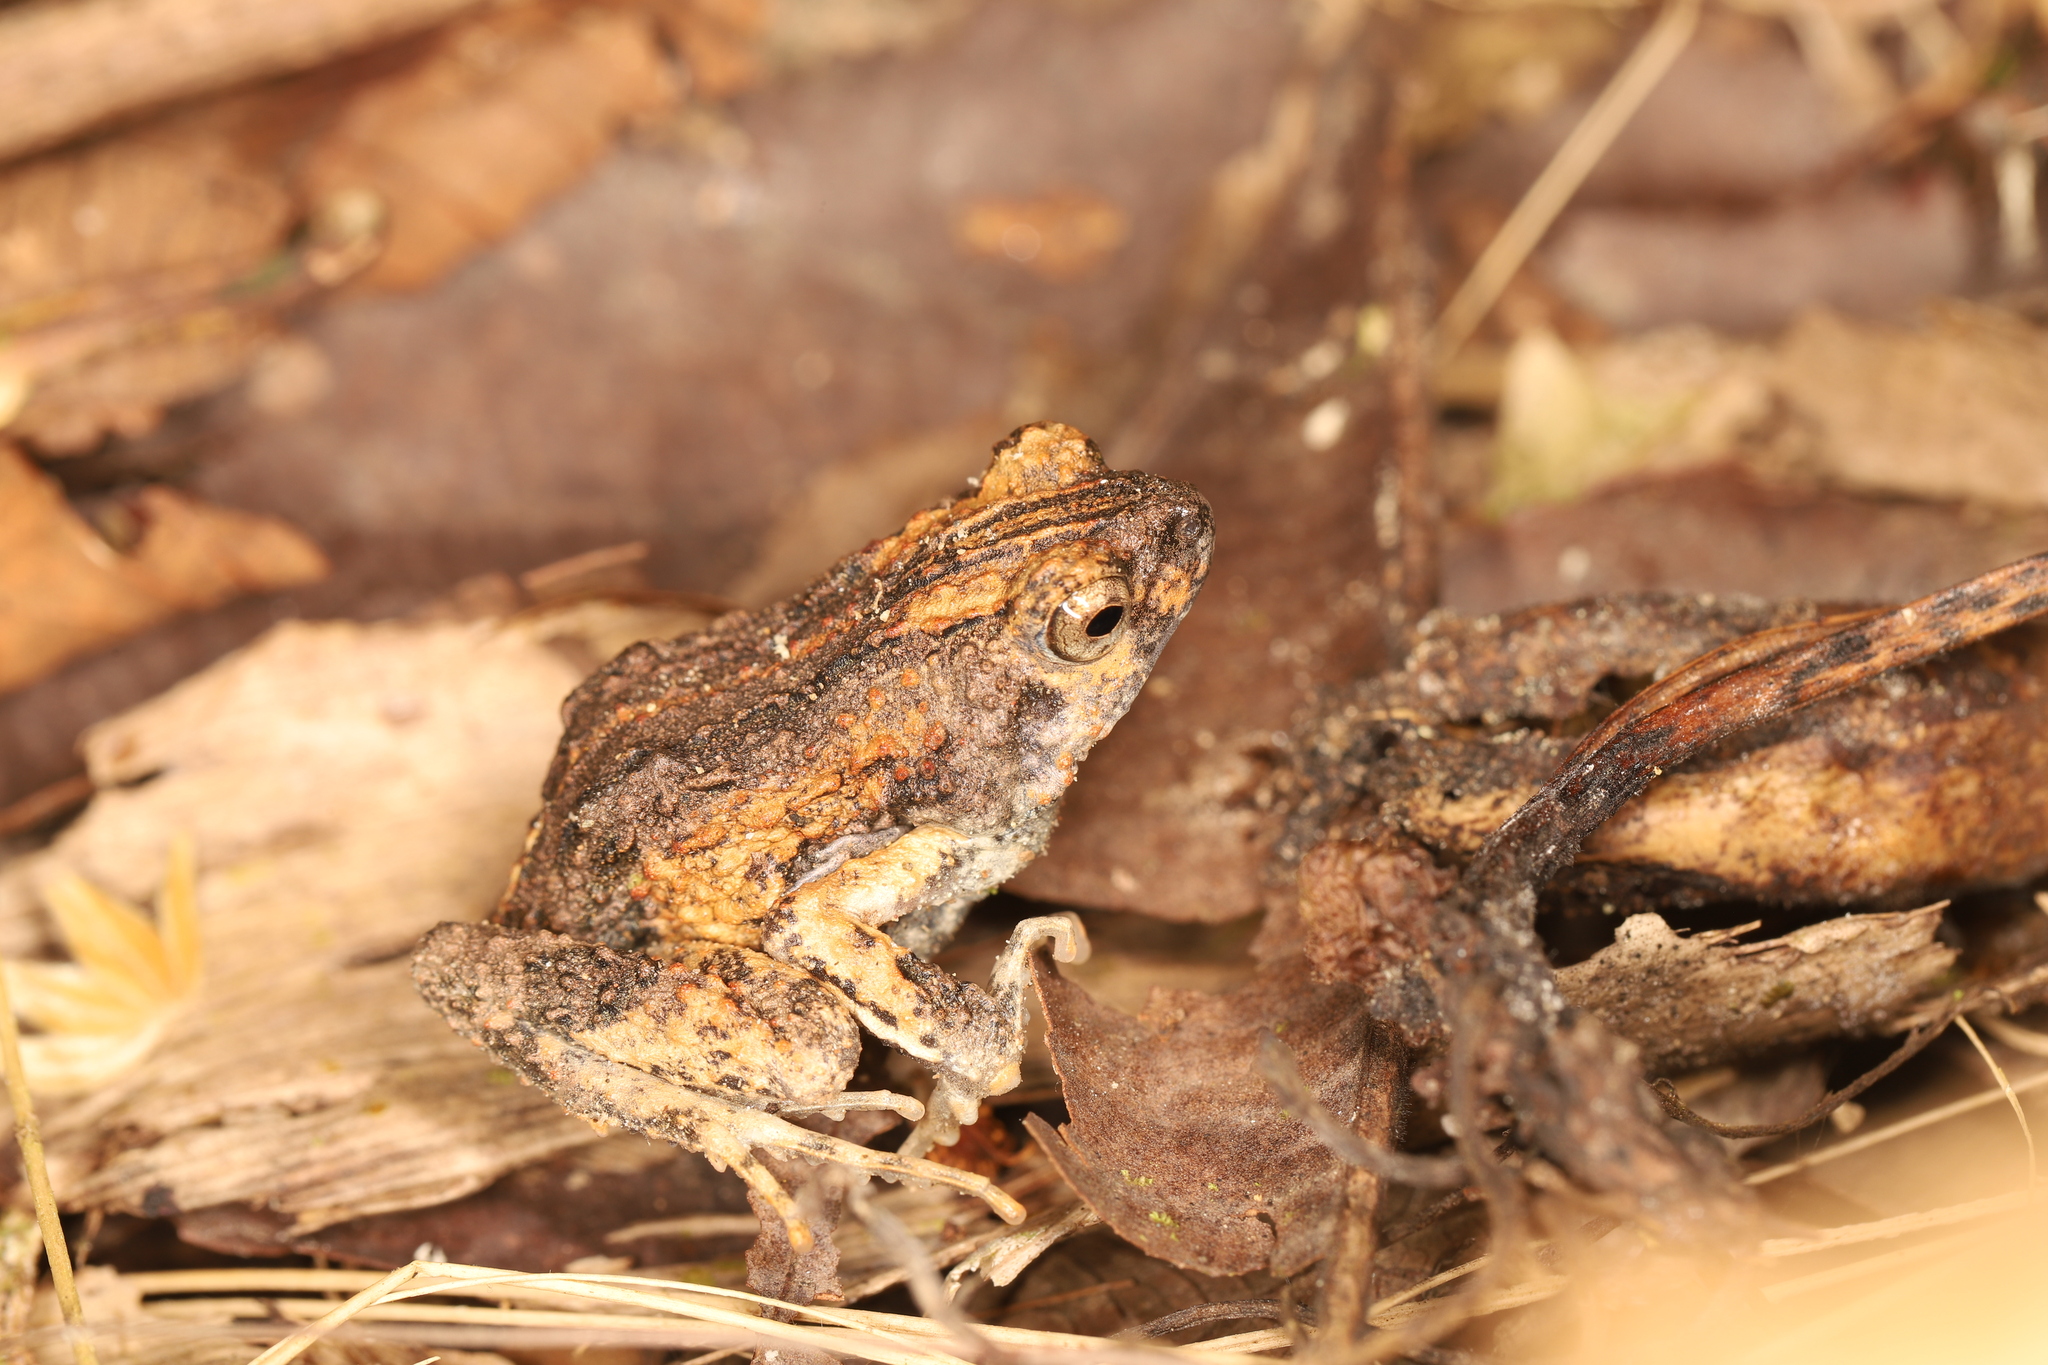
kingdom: Animalia
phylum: Chordata
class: Amphibia
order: Anura
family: Leptodactylidae
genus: Engystomops
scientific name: Engystomops pustulosus
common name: Tungara frog
